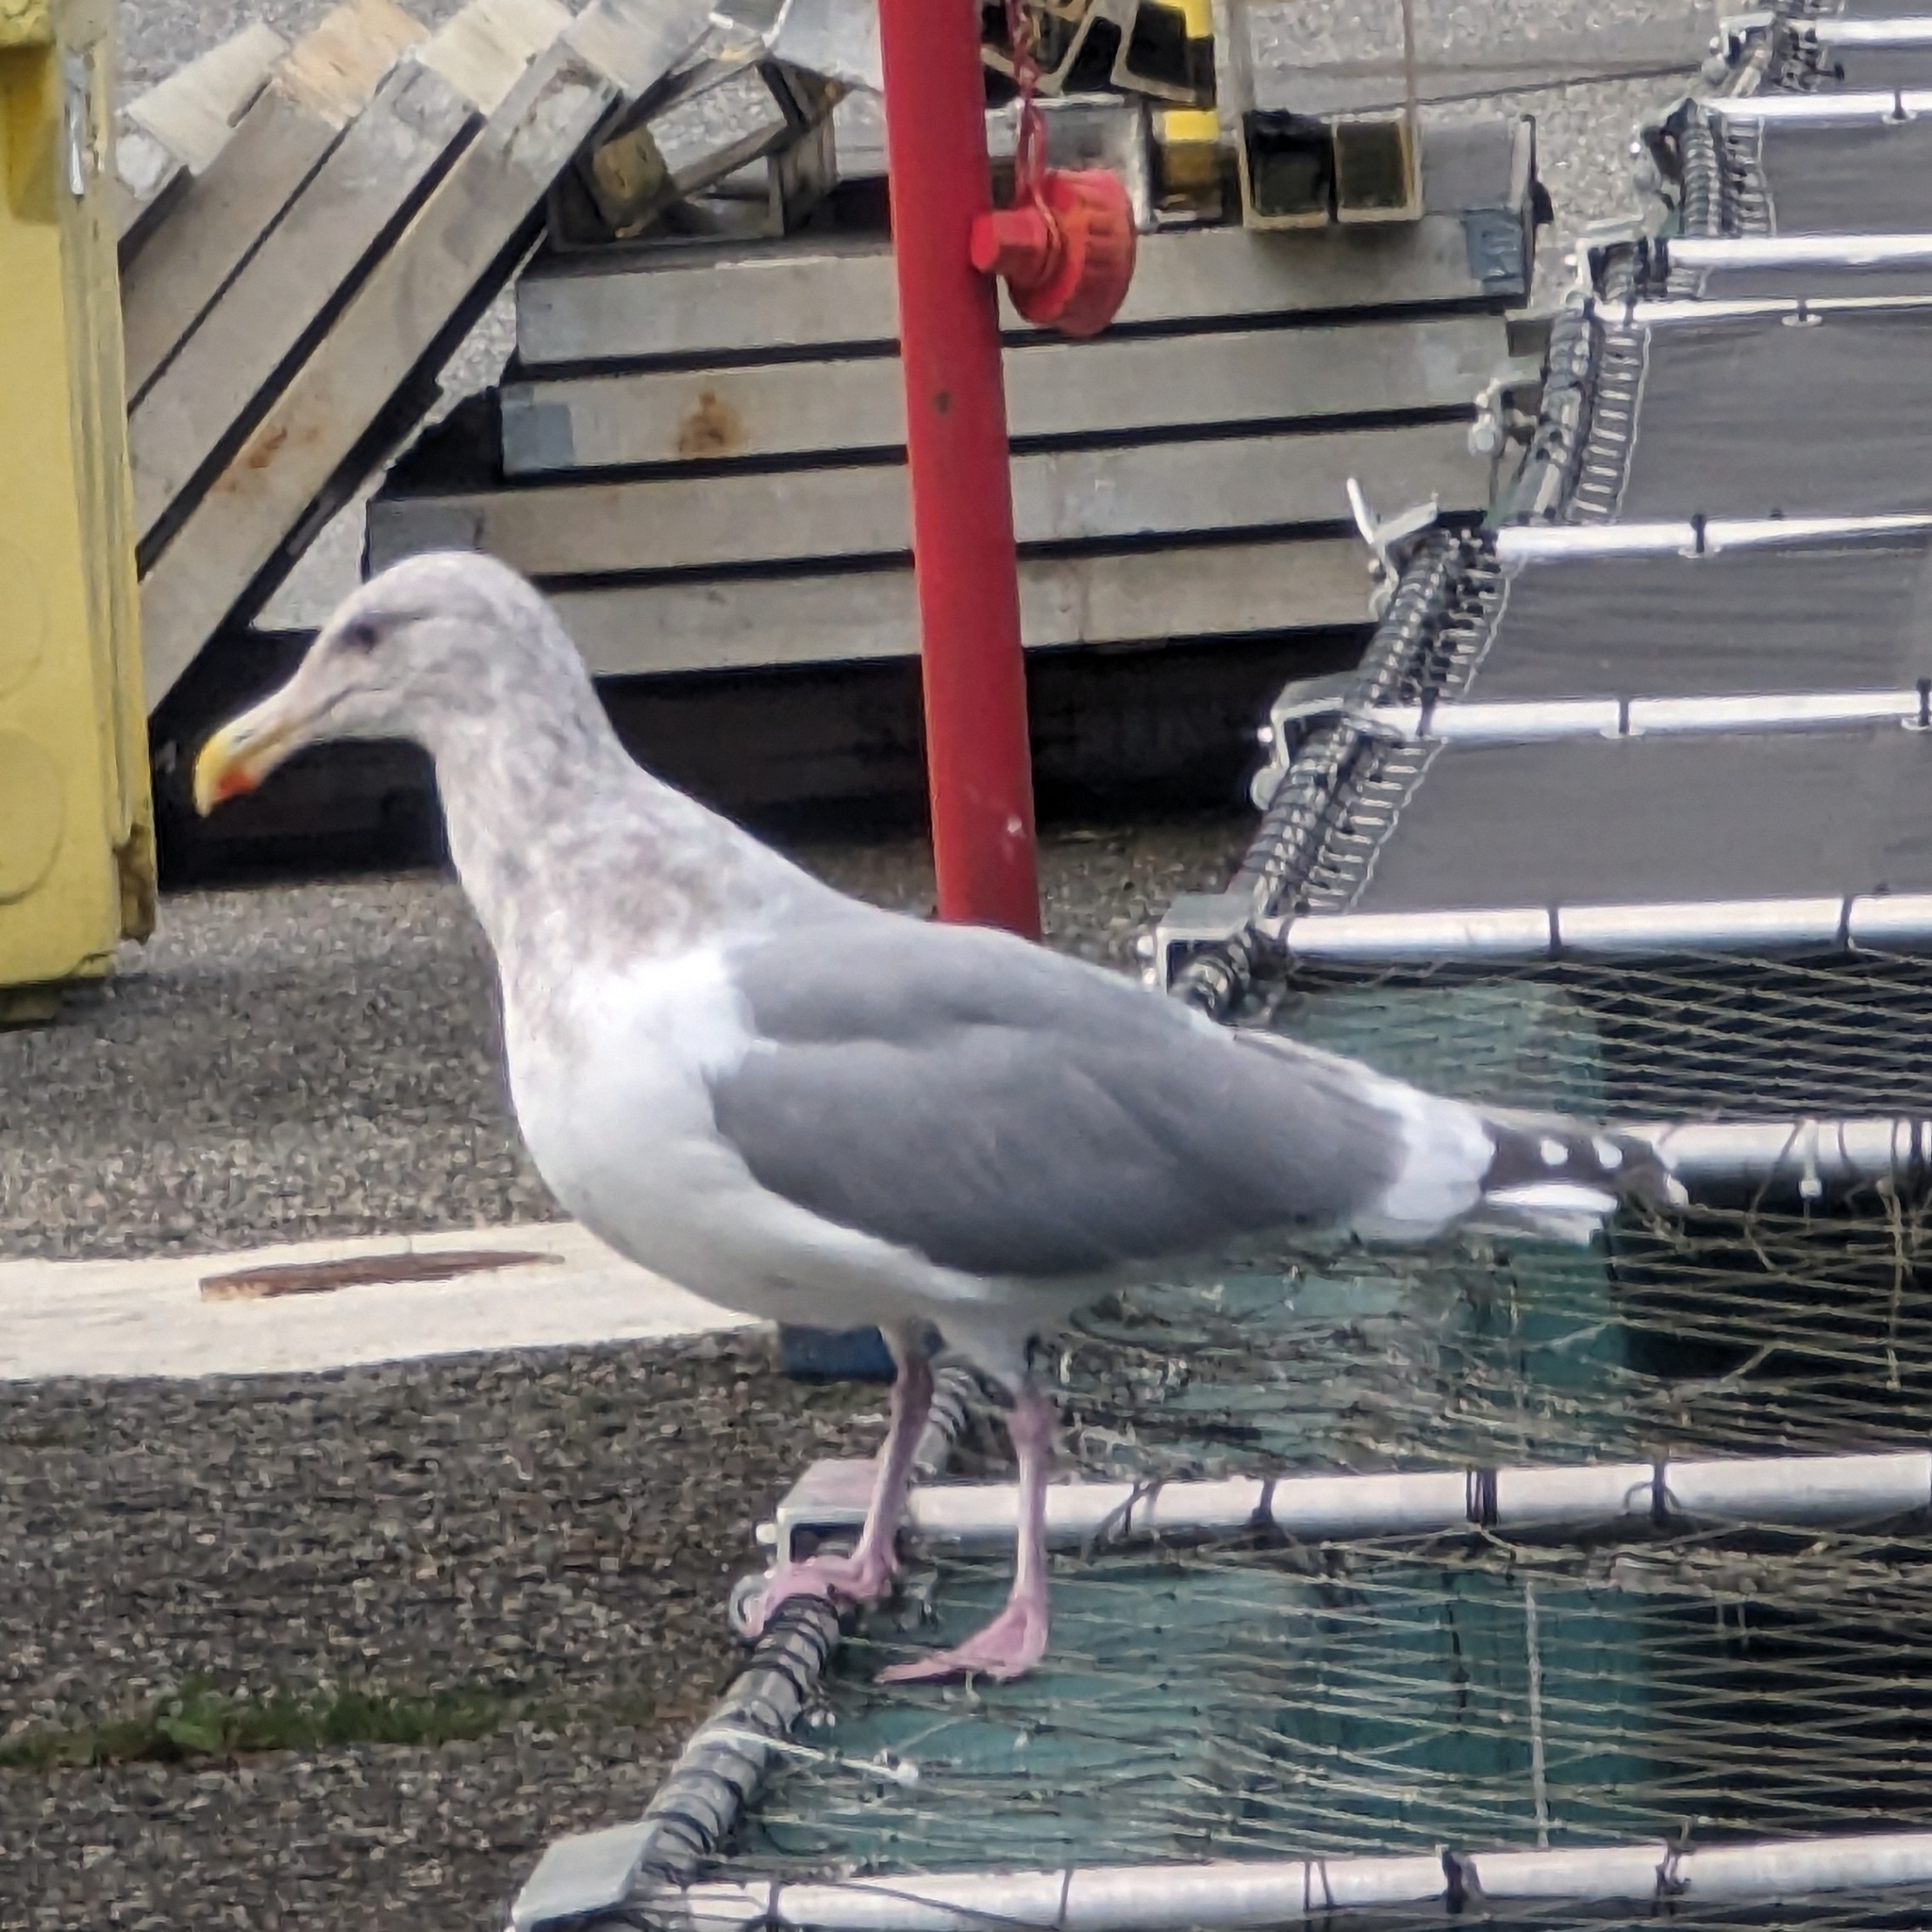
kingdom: Animalia
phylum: Chordata
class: Aves
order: Charadriiformes
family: Laridae
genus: Larus
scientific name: Larus
